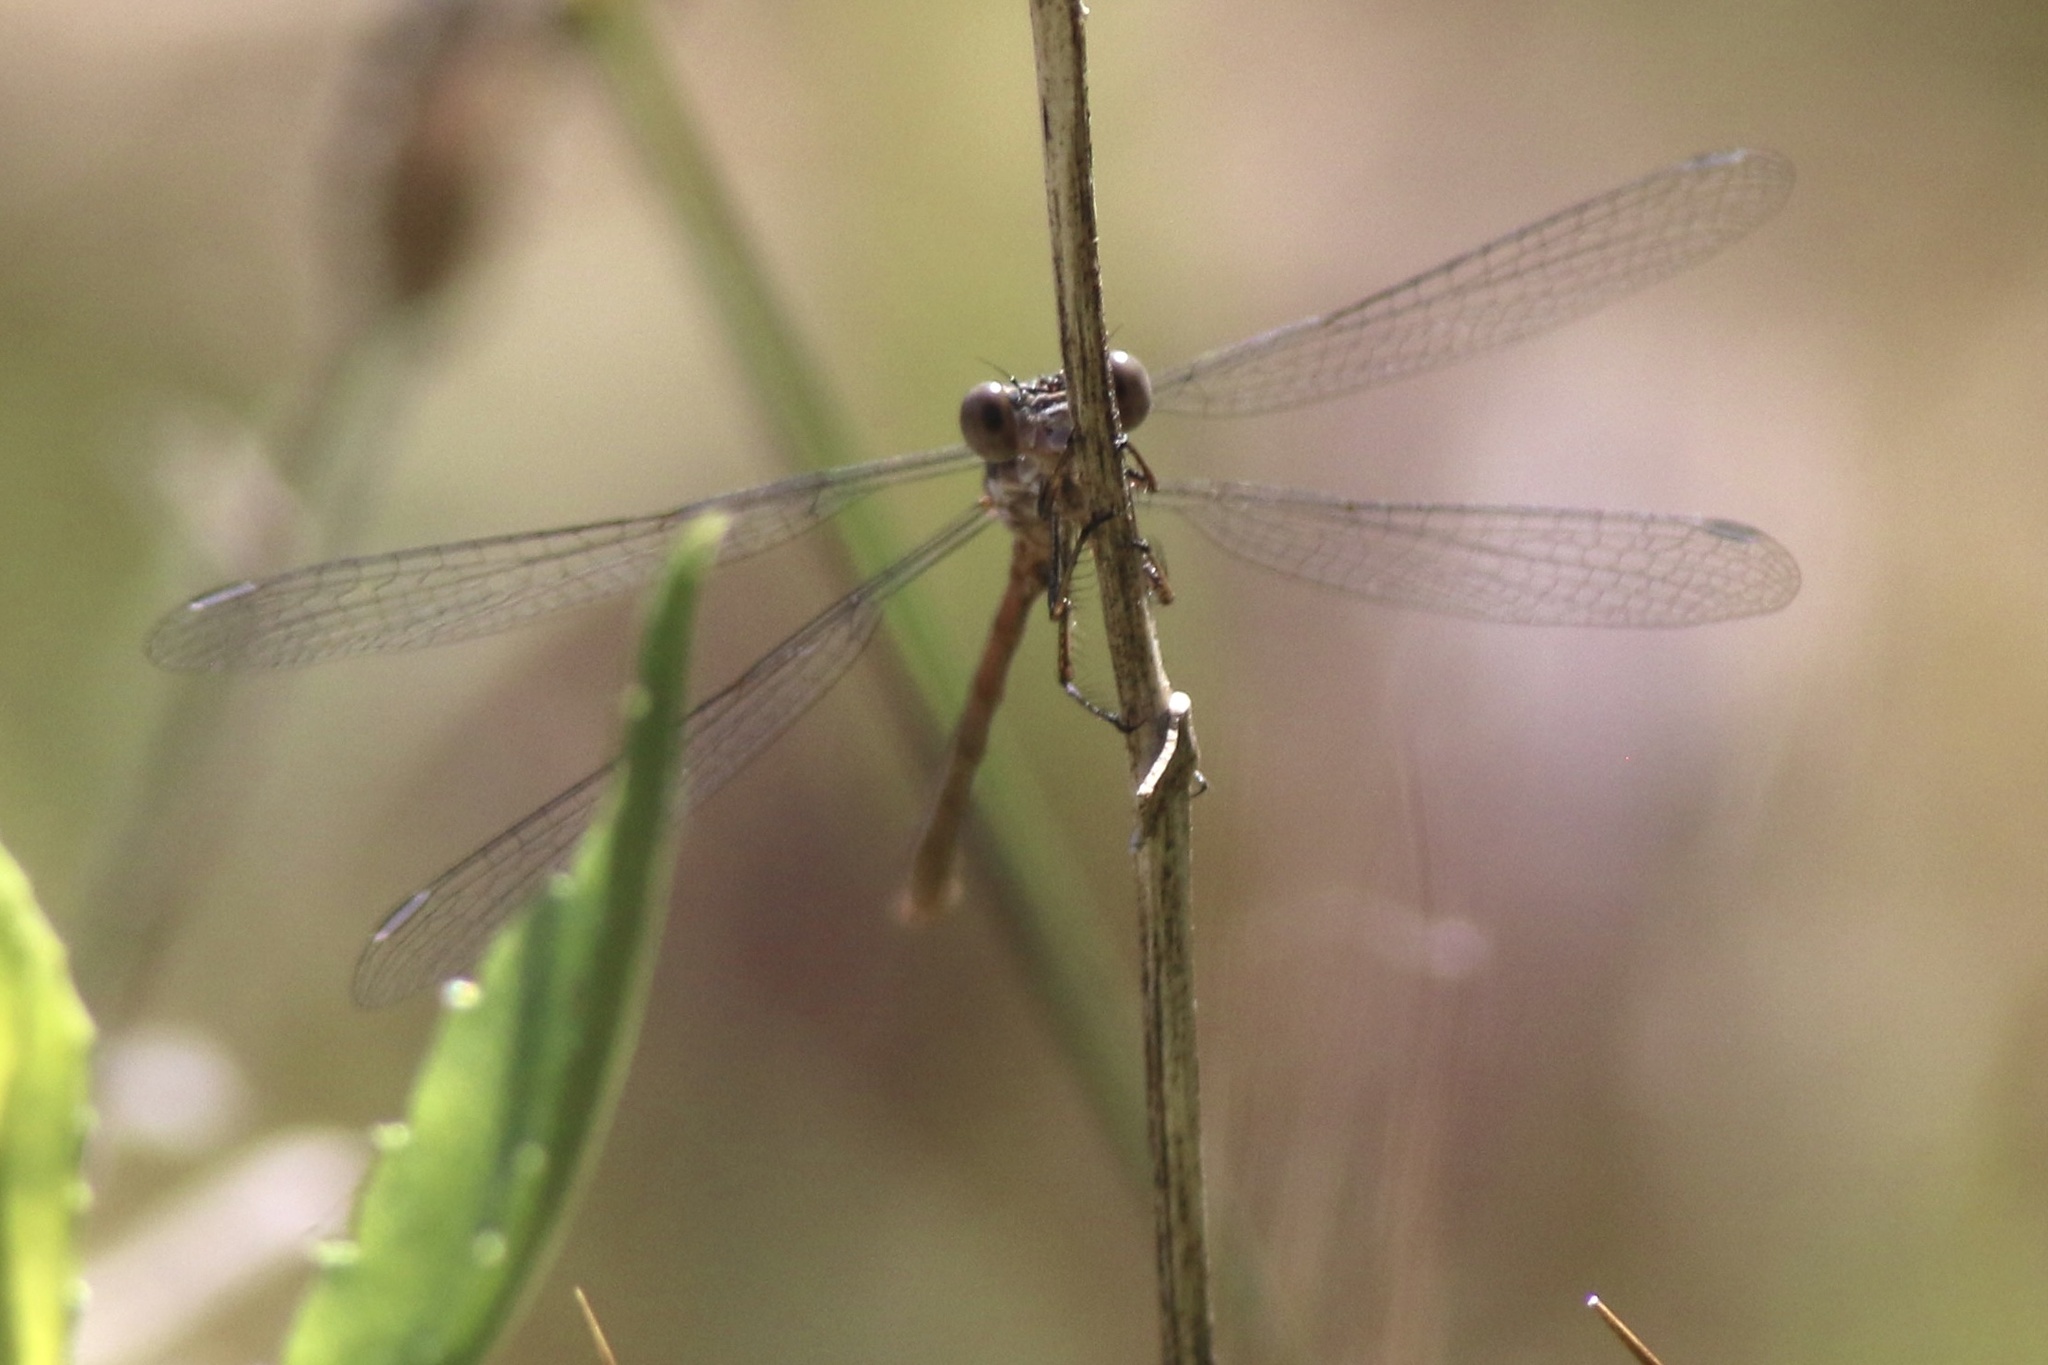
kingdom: Animalia
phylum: Arthropoda
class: Insecta
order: Odonata
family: Lestidae
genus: Lestes
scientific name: Lestes congener
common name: Spotted spreadwing
